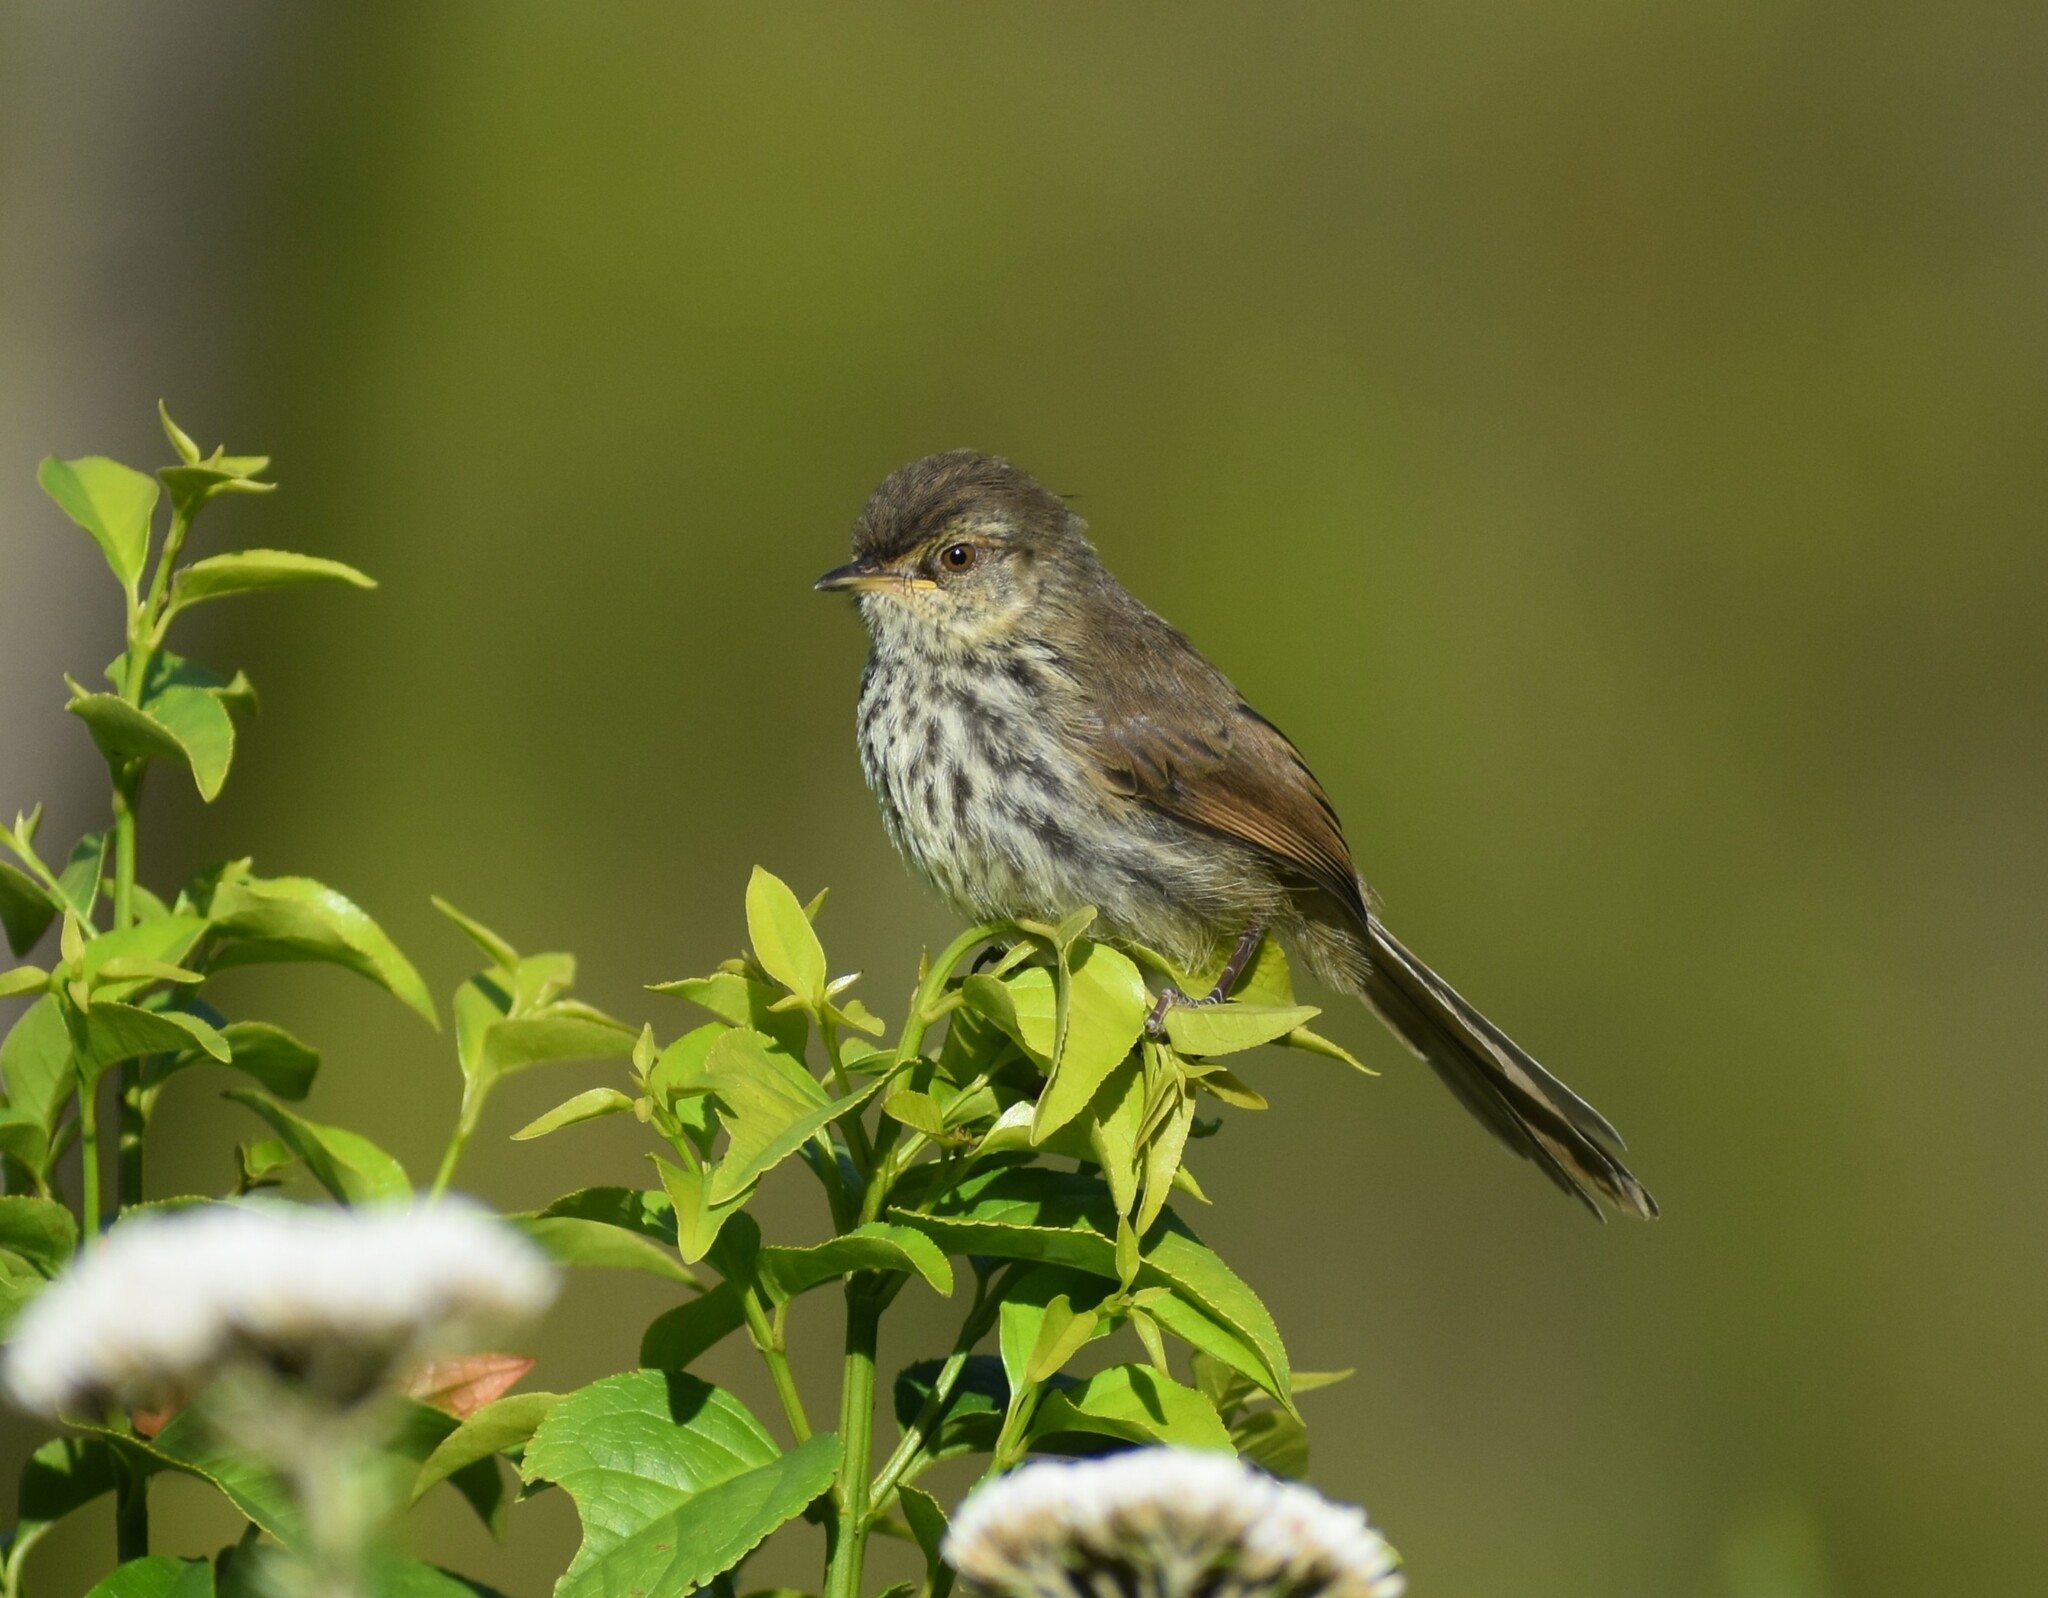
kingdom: Animalia
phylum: Chordata
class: Aves
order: Passeriformes
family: Cisticolidae
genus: Prinia
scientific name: Prinia maculosa
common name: Karoo prinia
